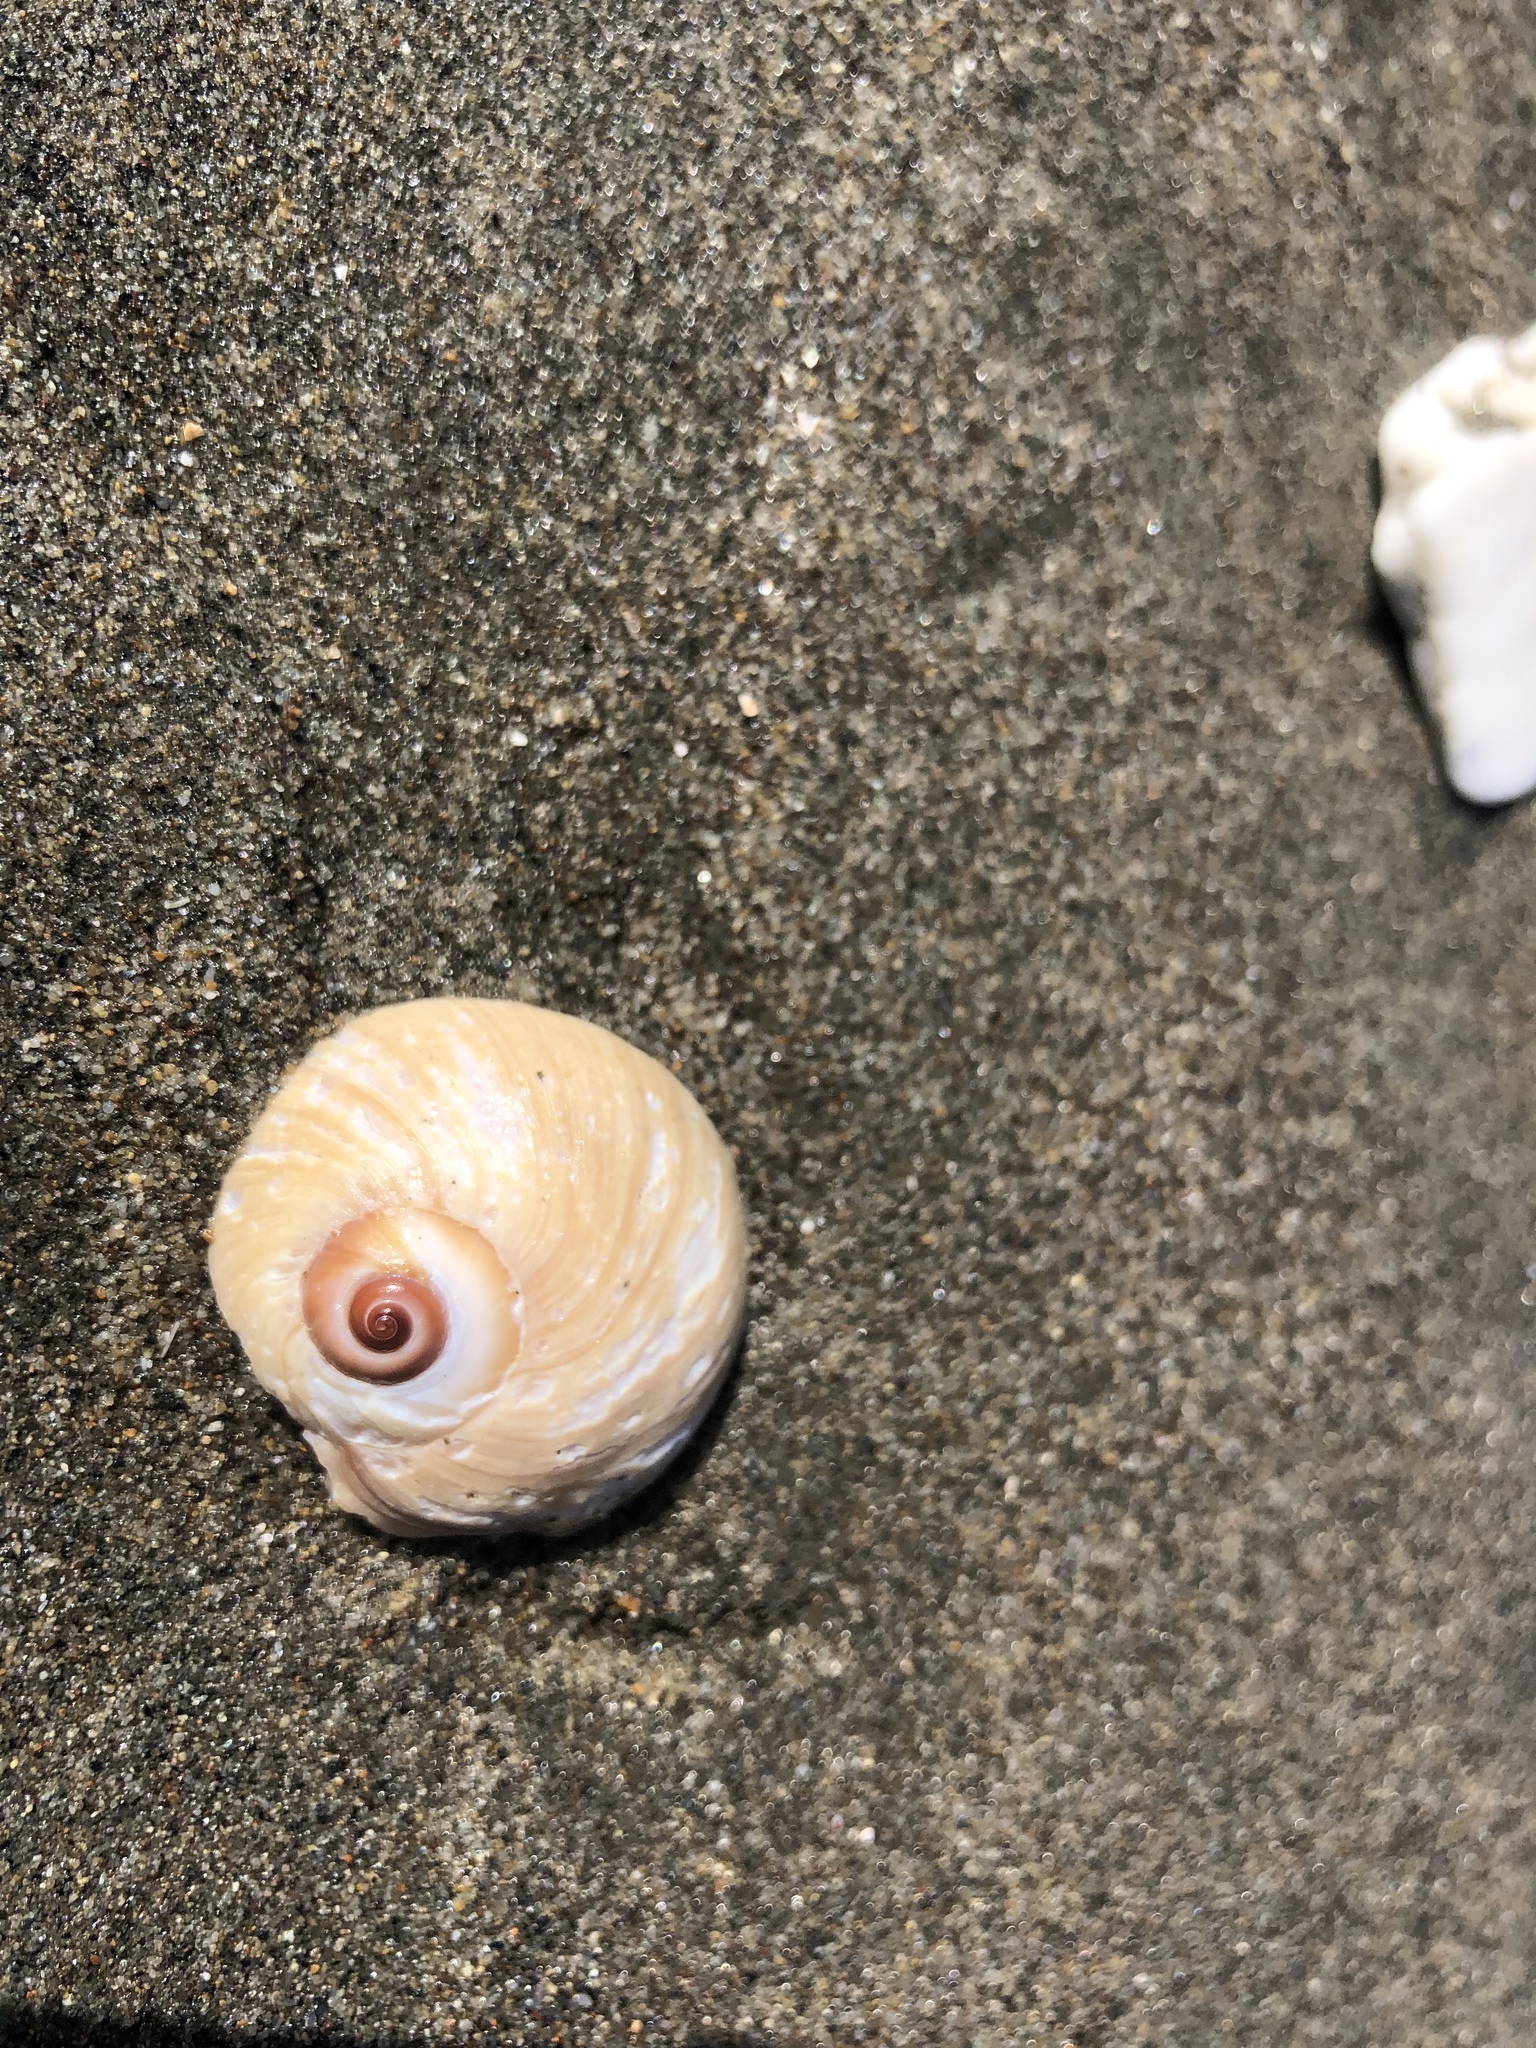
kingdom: Animalia
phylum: Mollusca
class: Gastropoda
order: Littorinimorpha
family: Naticidae
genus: Neverita
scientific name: Neverita lewisii
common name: Lewis' moonsnail
